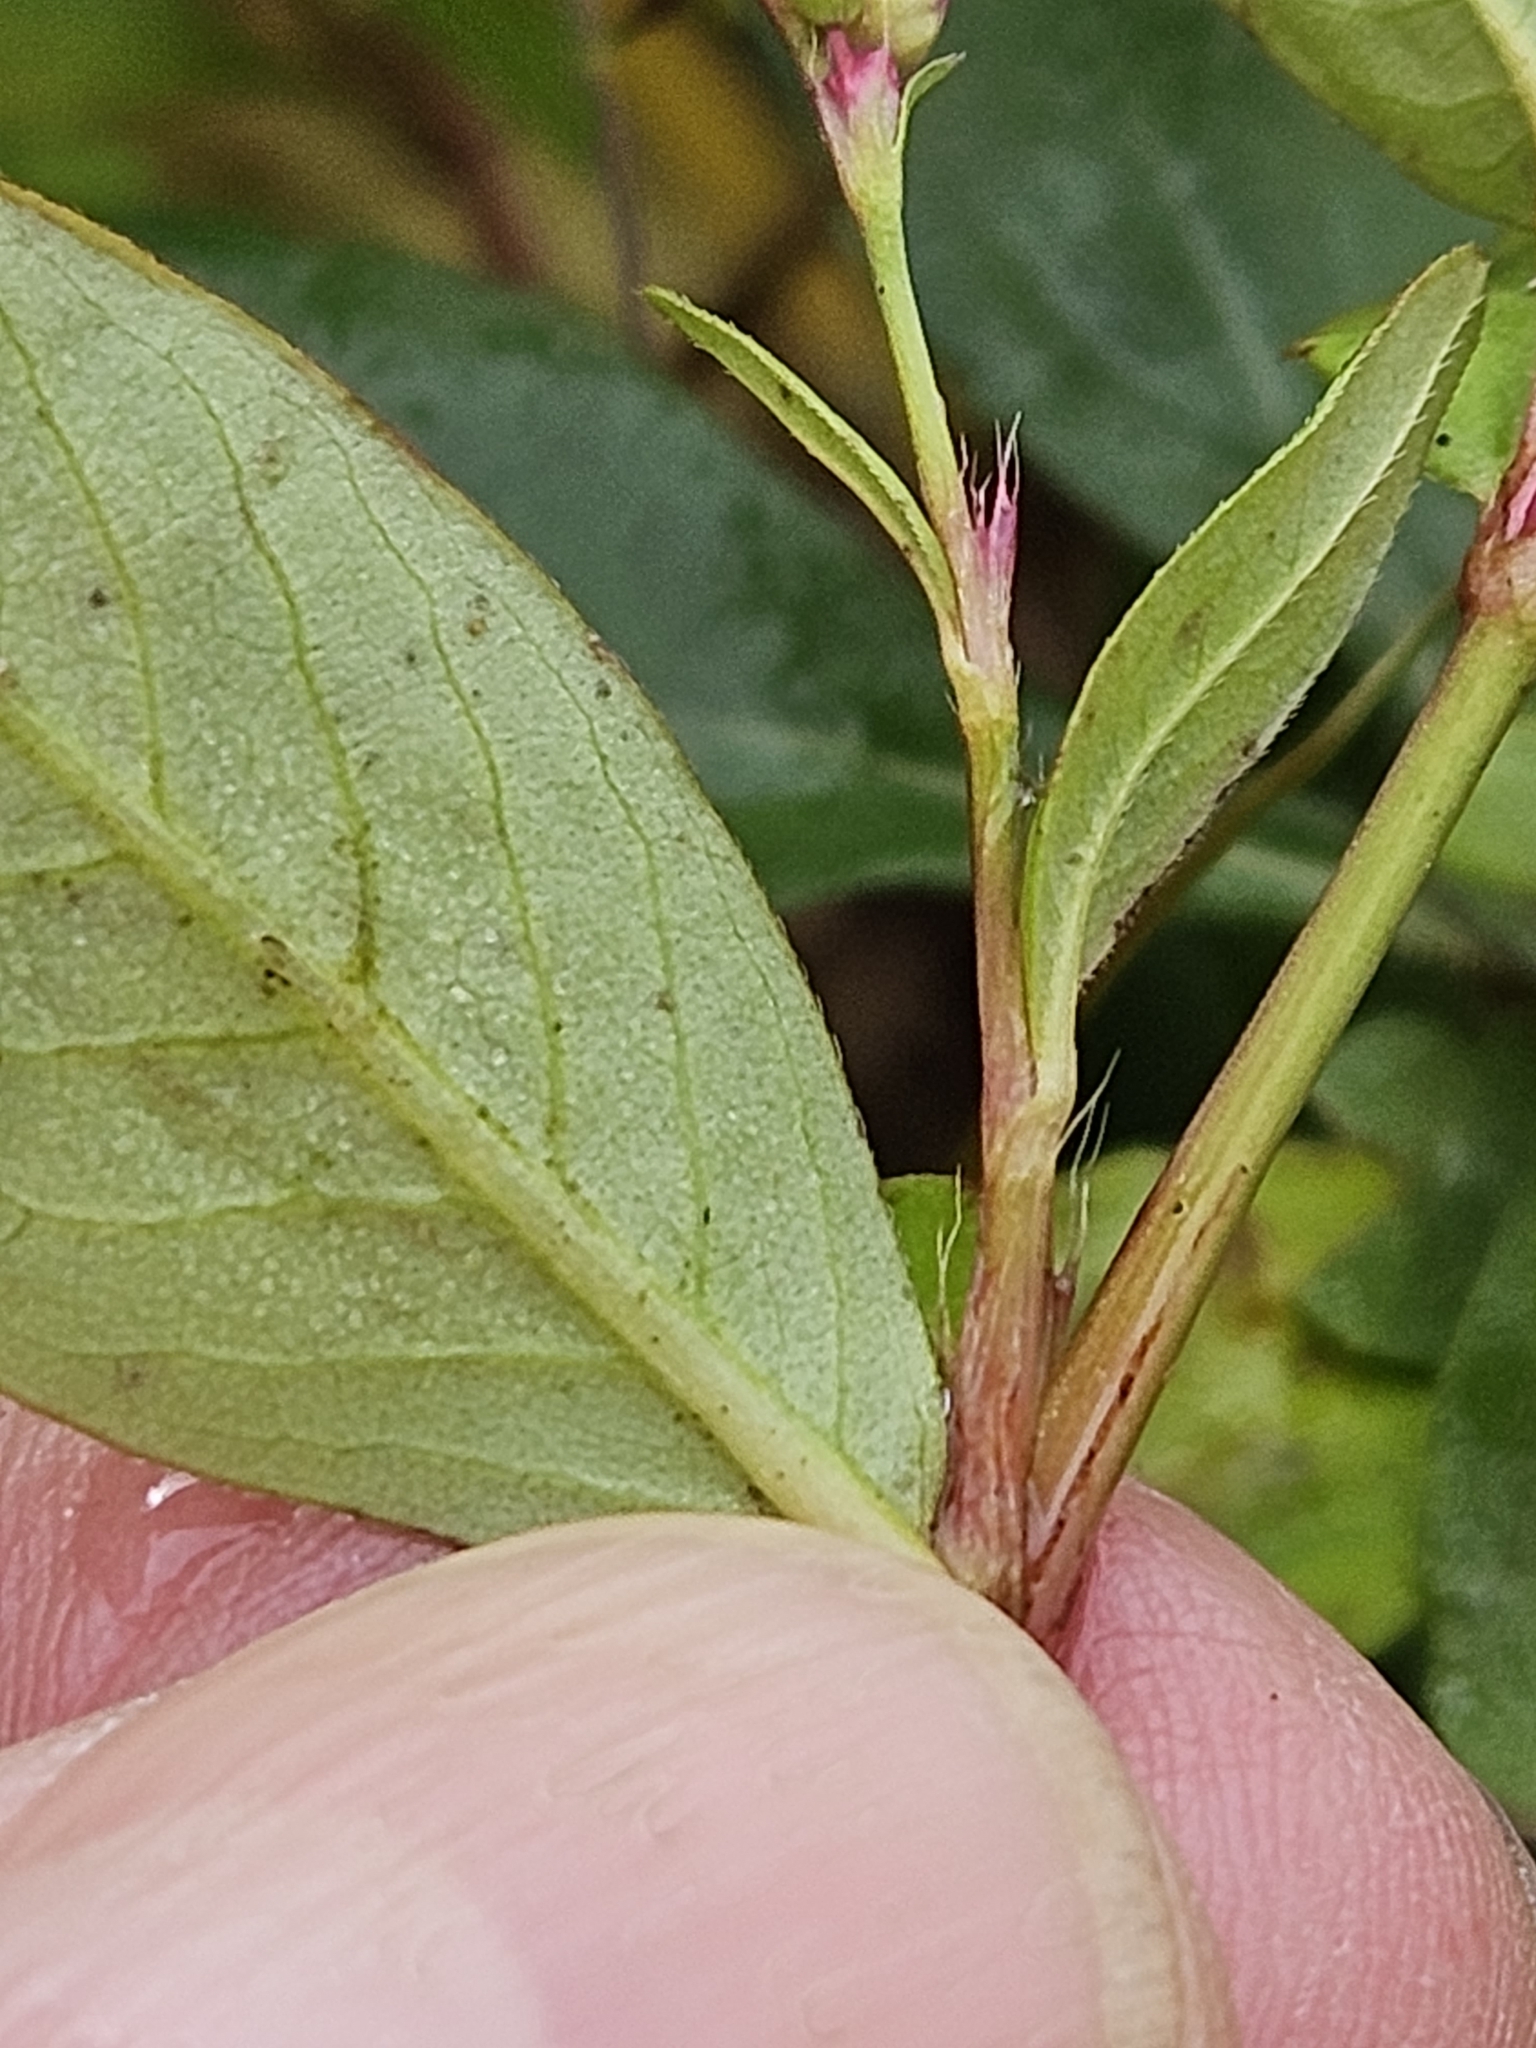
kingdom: Plantae
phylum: Tracheophyta
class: Magnoliopsida
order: Caryophyllales
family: Polygonaceae
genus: Persicaria
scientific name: Persicaria longiseta
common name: Bristly lady's-thumb
